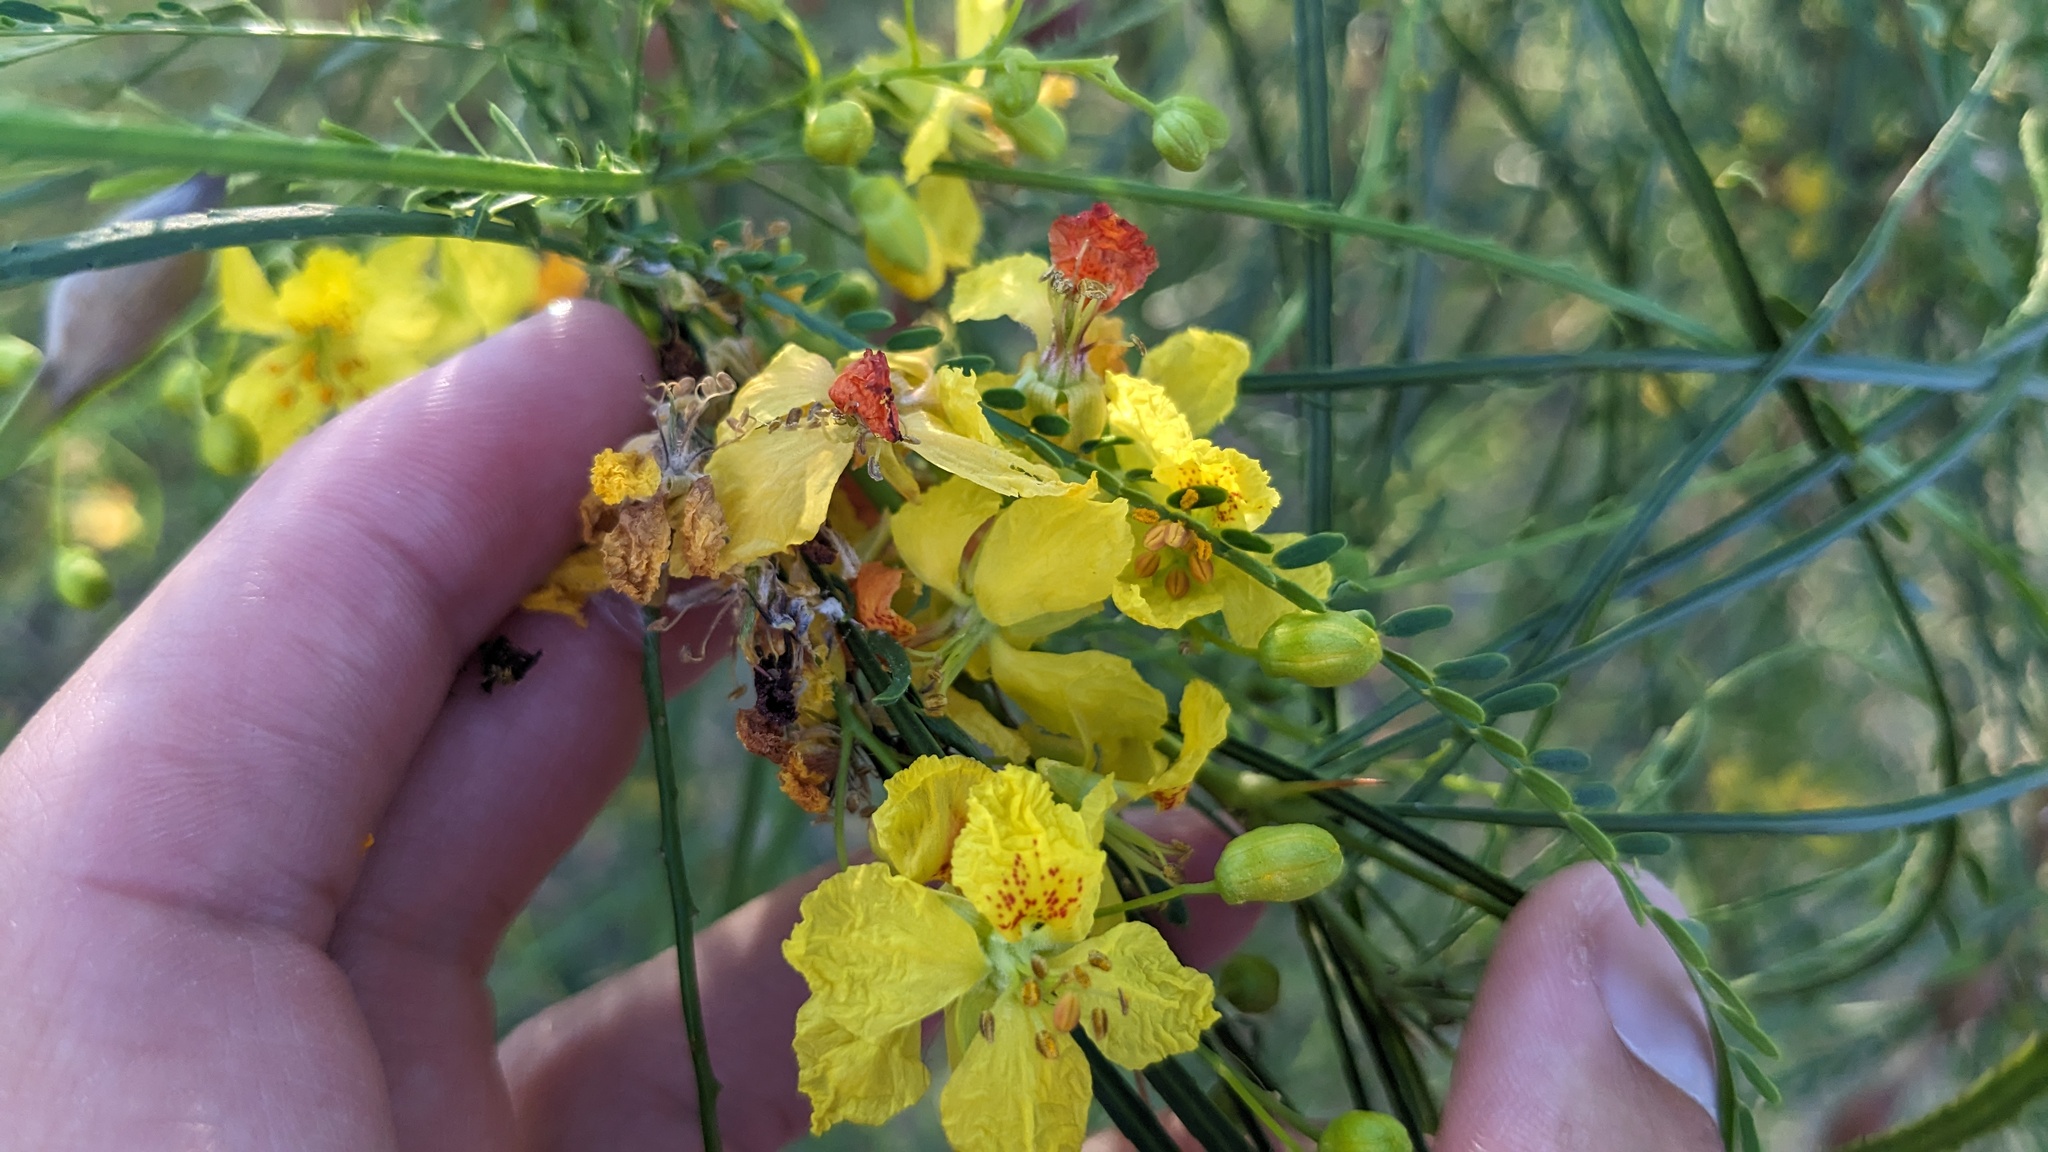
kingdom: Plantae
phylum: Tracheophyta
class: Magnoliopsida
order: Fabales
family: Fabaceae
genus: Parkinsonia
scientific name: Parkinsonia aculeata
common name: Jerusalem thorn
